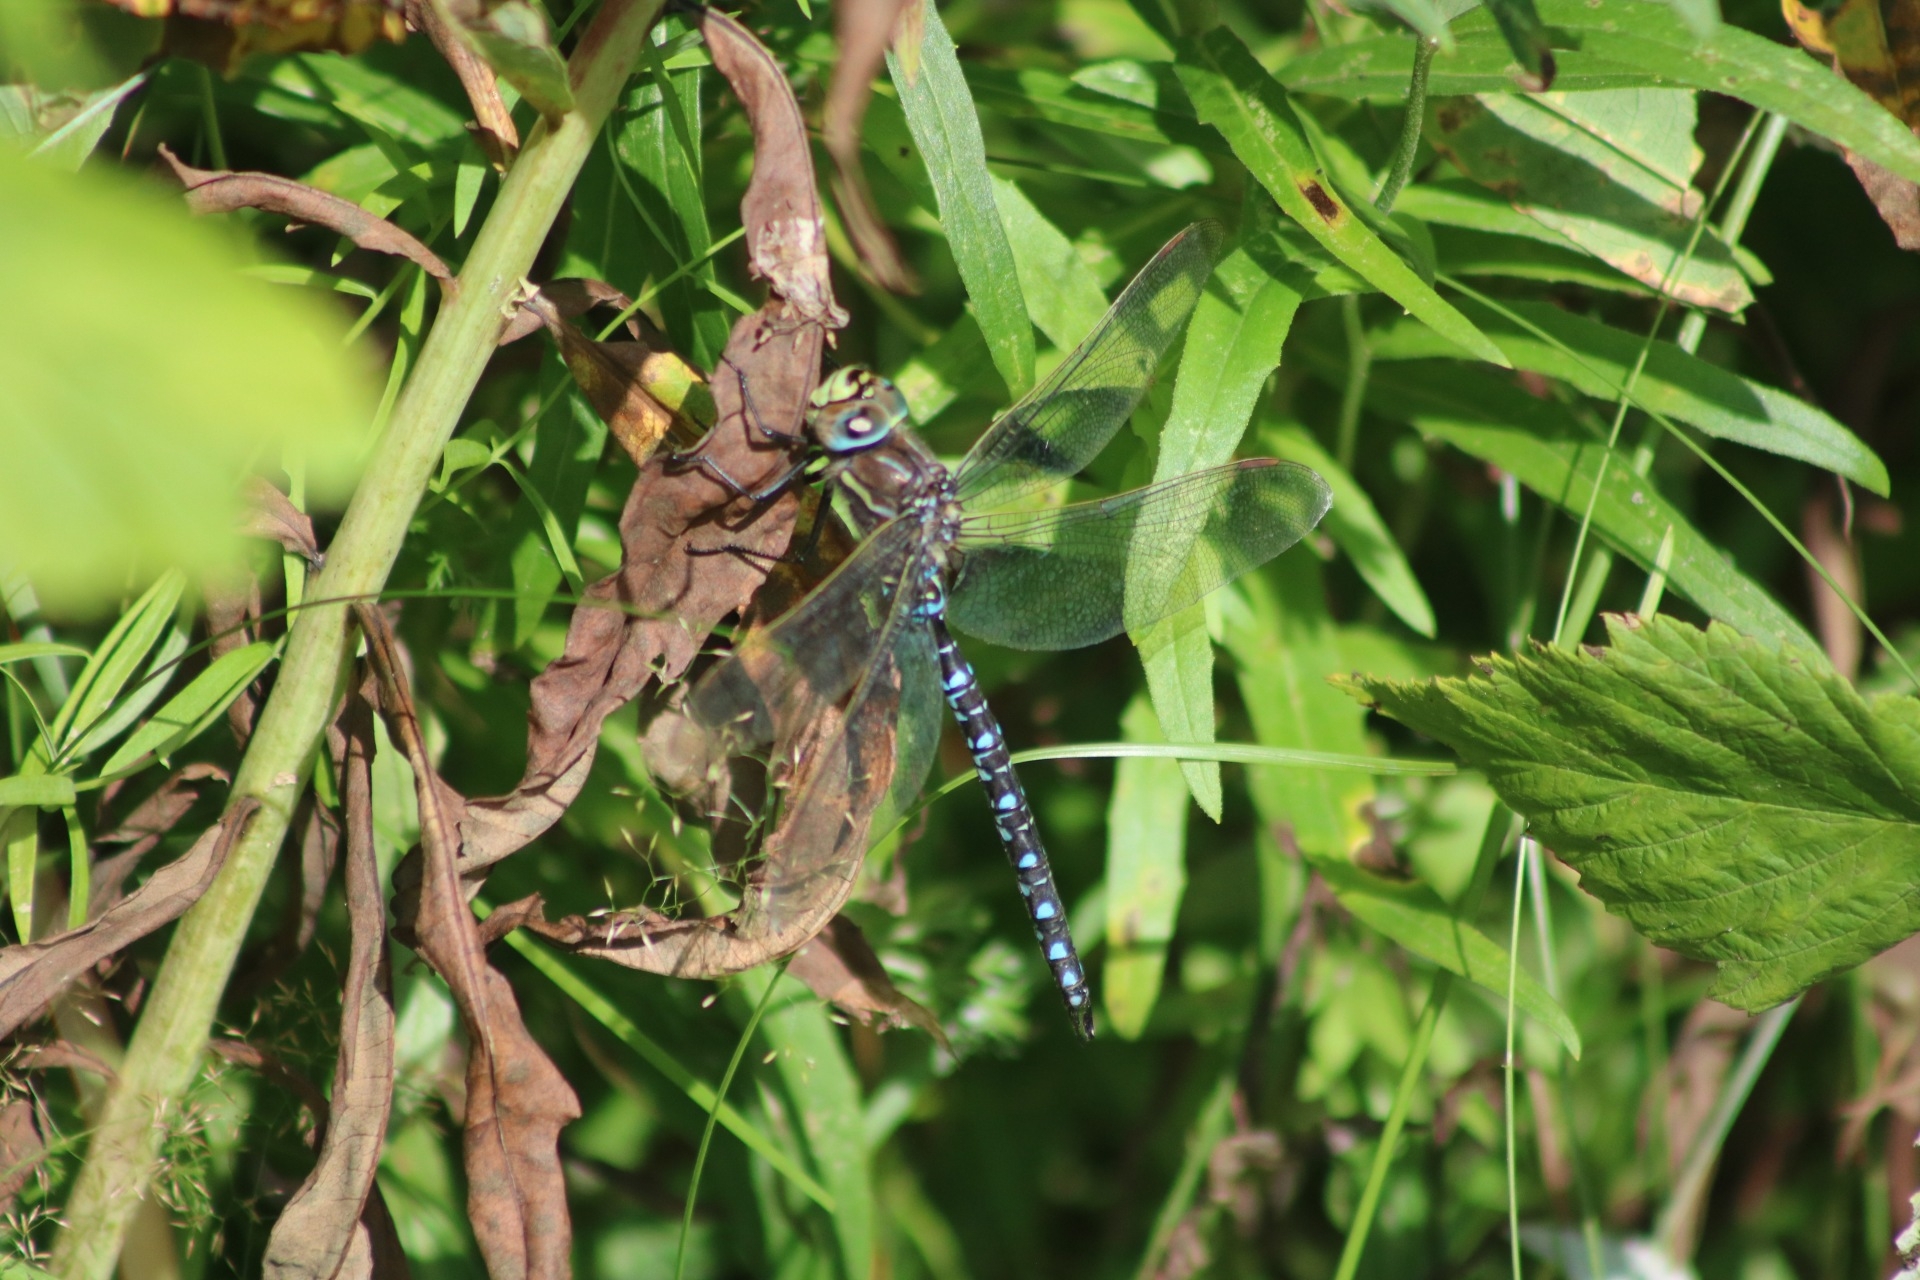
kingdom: Animalia
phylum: Arthropoda
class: Insecta
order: Odonata
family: Aeshnidae
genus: Aeshna
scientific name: Aeshna juncea
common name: Moorland hawker
